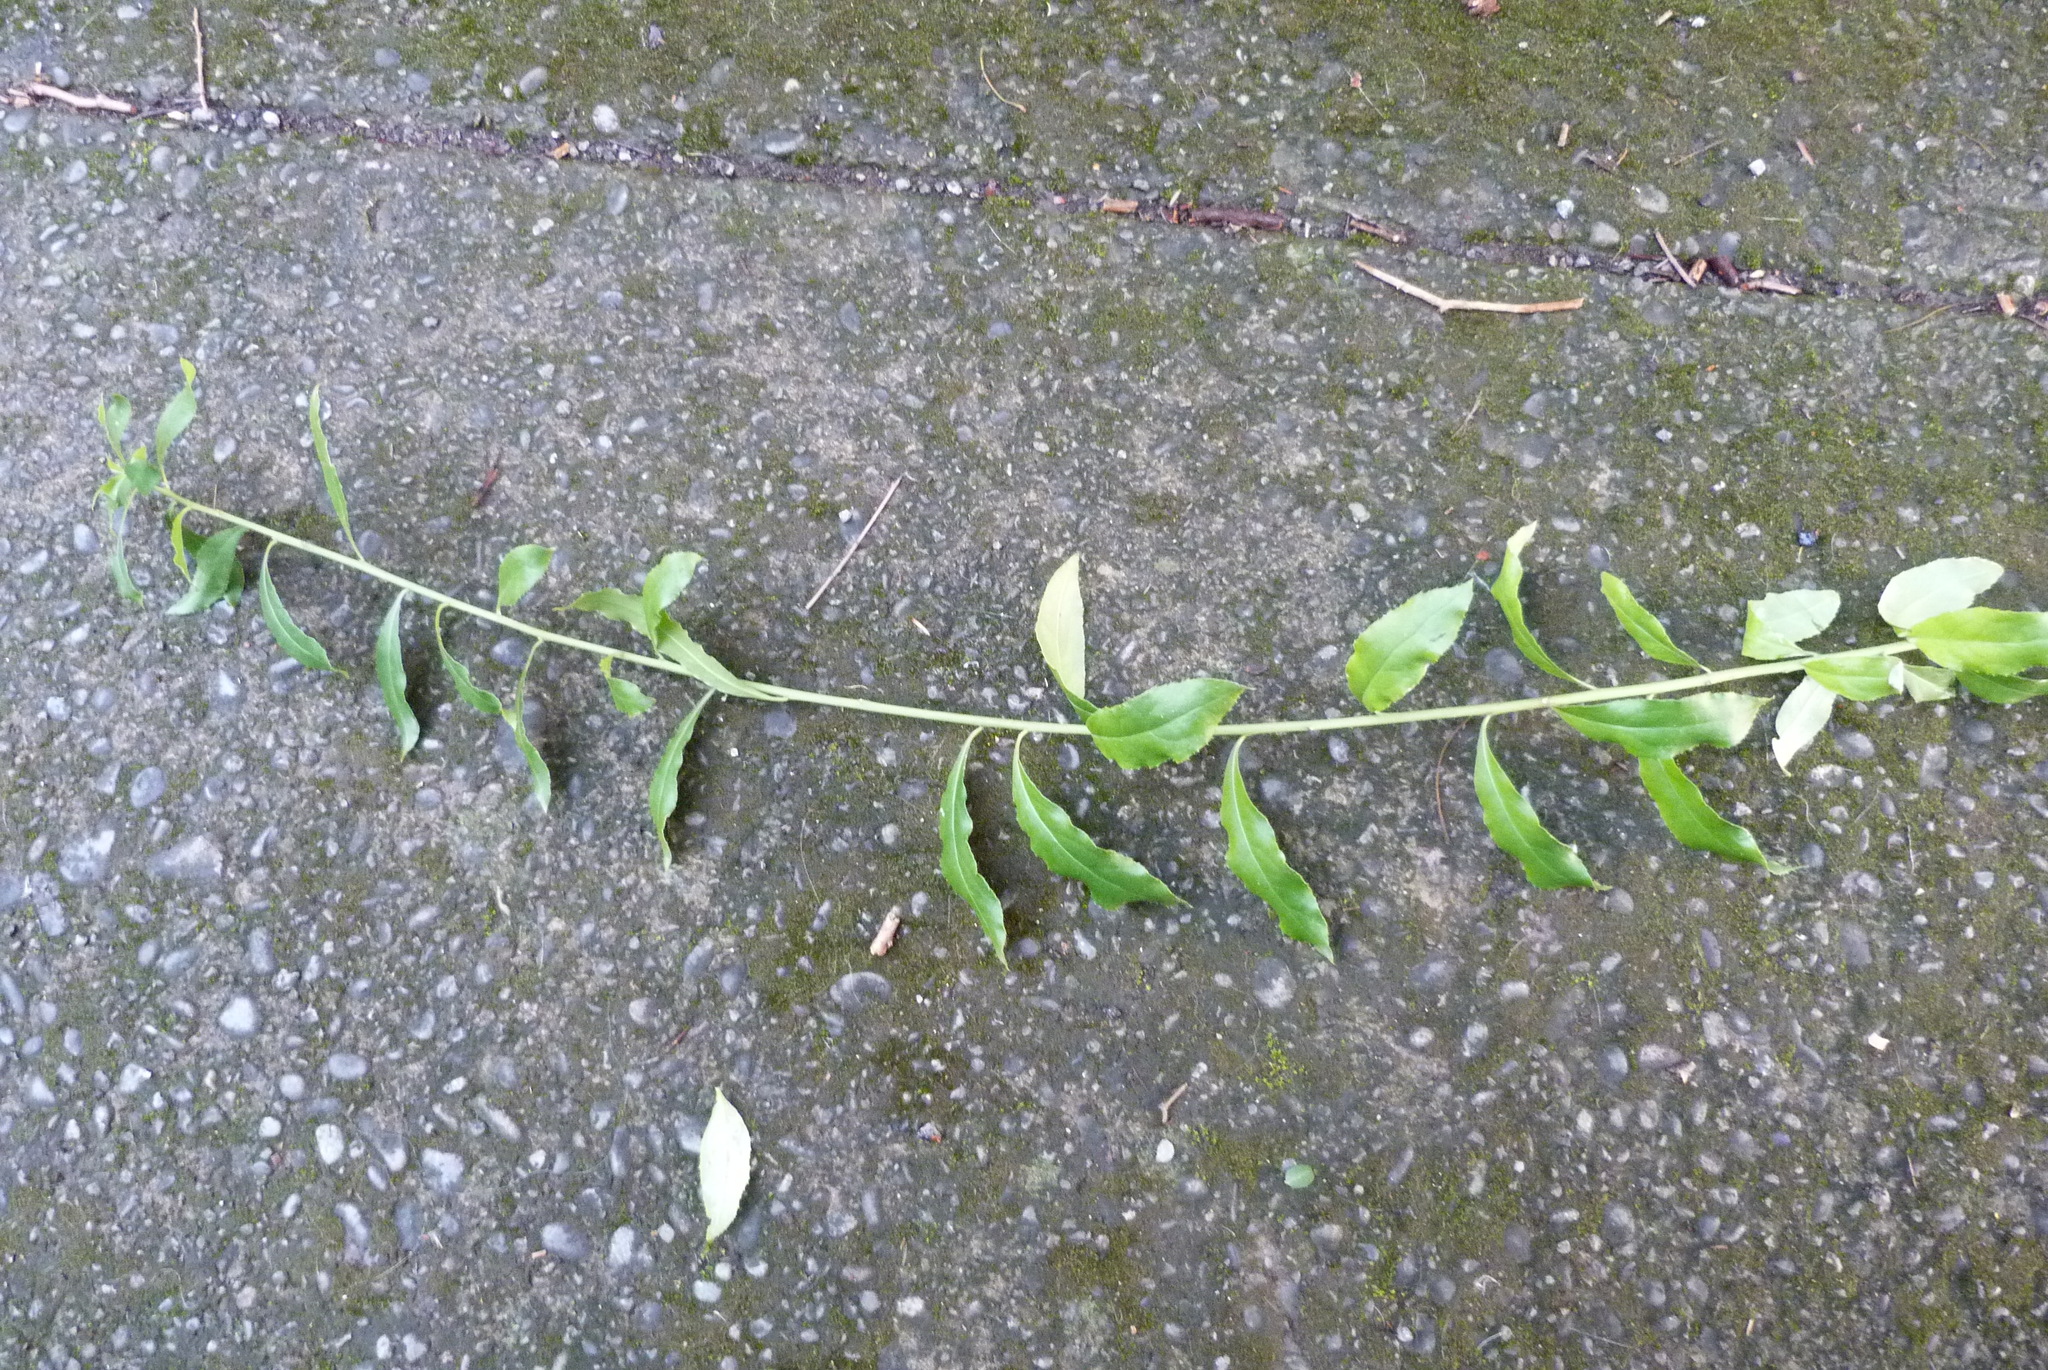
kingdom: Plantae
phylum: Tracheophyta
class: Magnoliopsida
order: Celastrales
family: Celastraceae
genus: Maytenus
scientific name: Maytenus boaria
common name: Mayten
